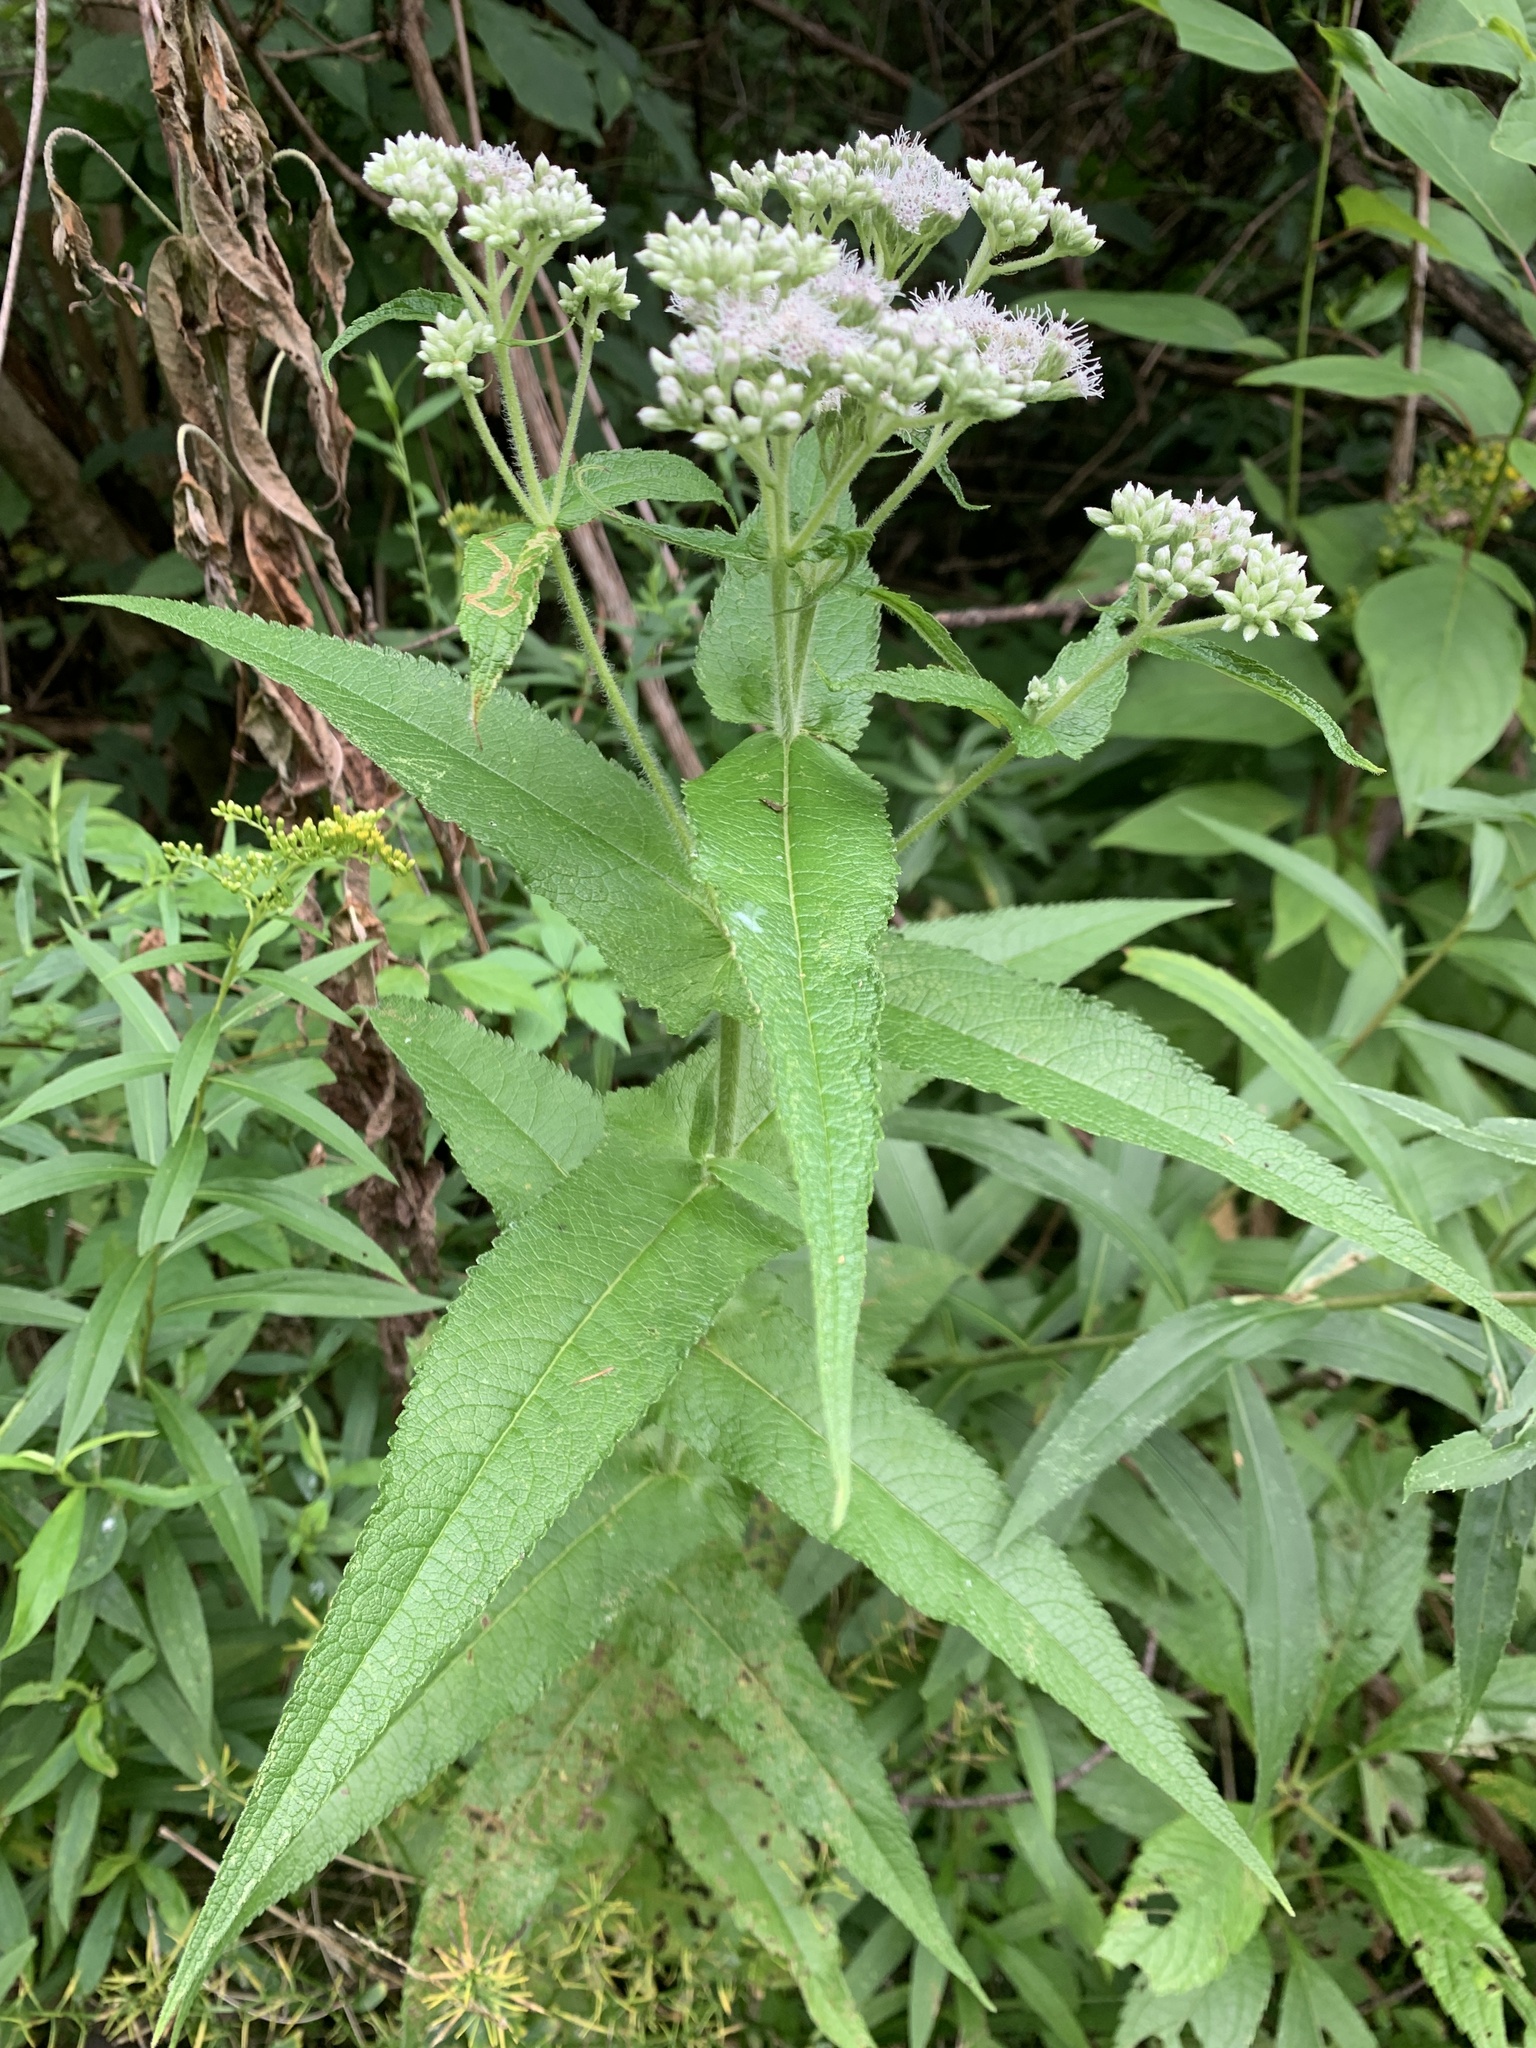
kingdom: Plantae
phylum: Tracheophyta
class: Magnoliopsida
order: Asterales
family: Asteraceae
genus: Eupatorium
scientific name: Eupatorium perfoliatum
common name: Boneset
